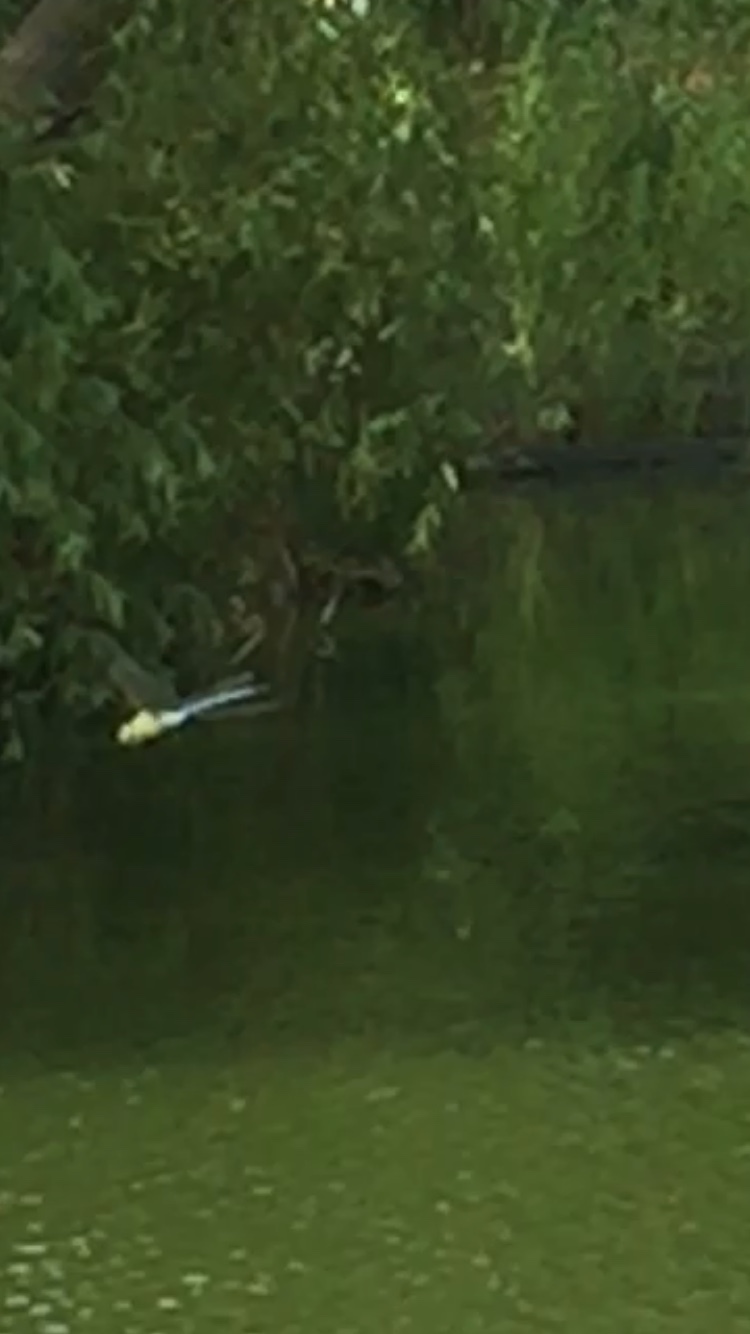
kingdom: Animalia
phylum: Arthropoda
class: Insecta
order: Odonata
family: Aeshnidae
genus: Anax
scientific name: Anax imperator
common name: Emperor dragonfly
